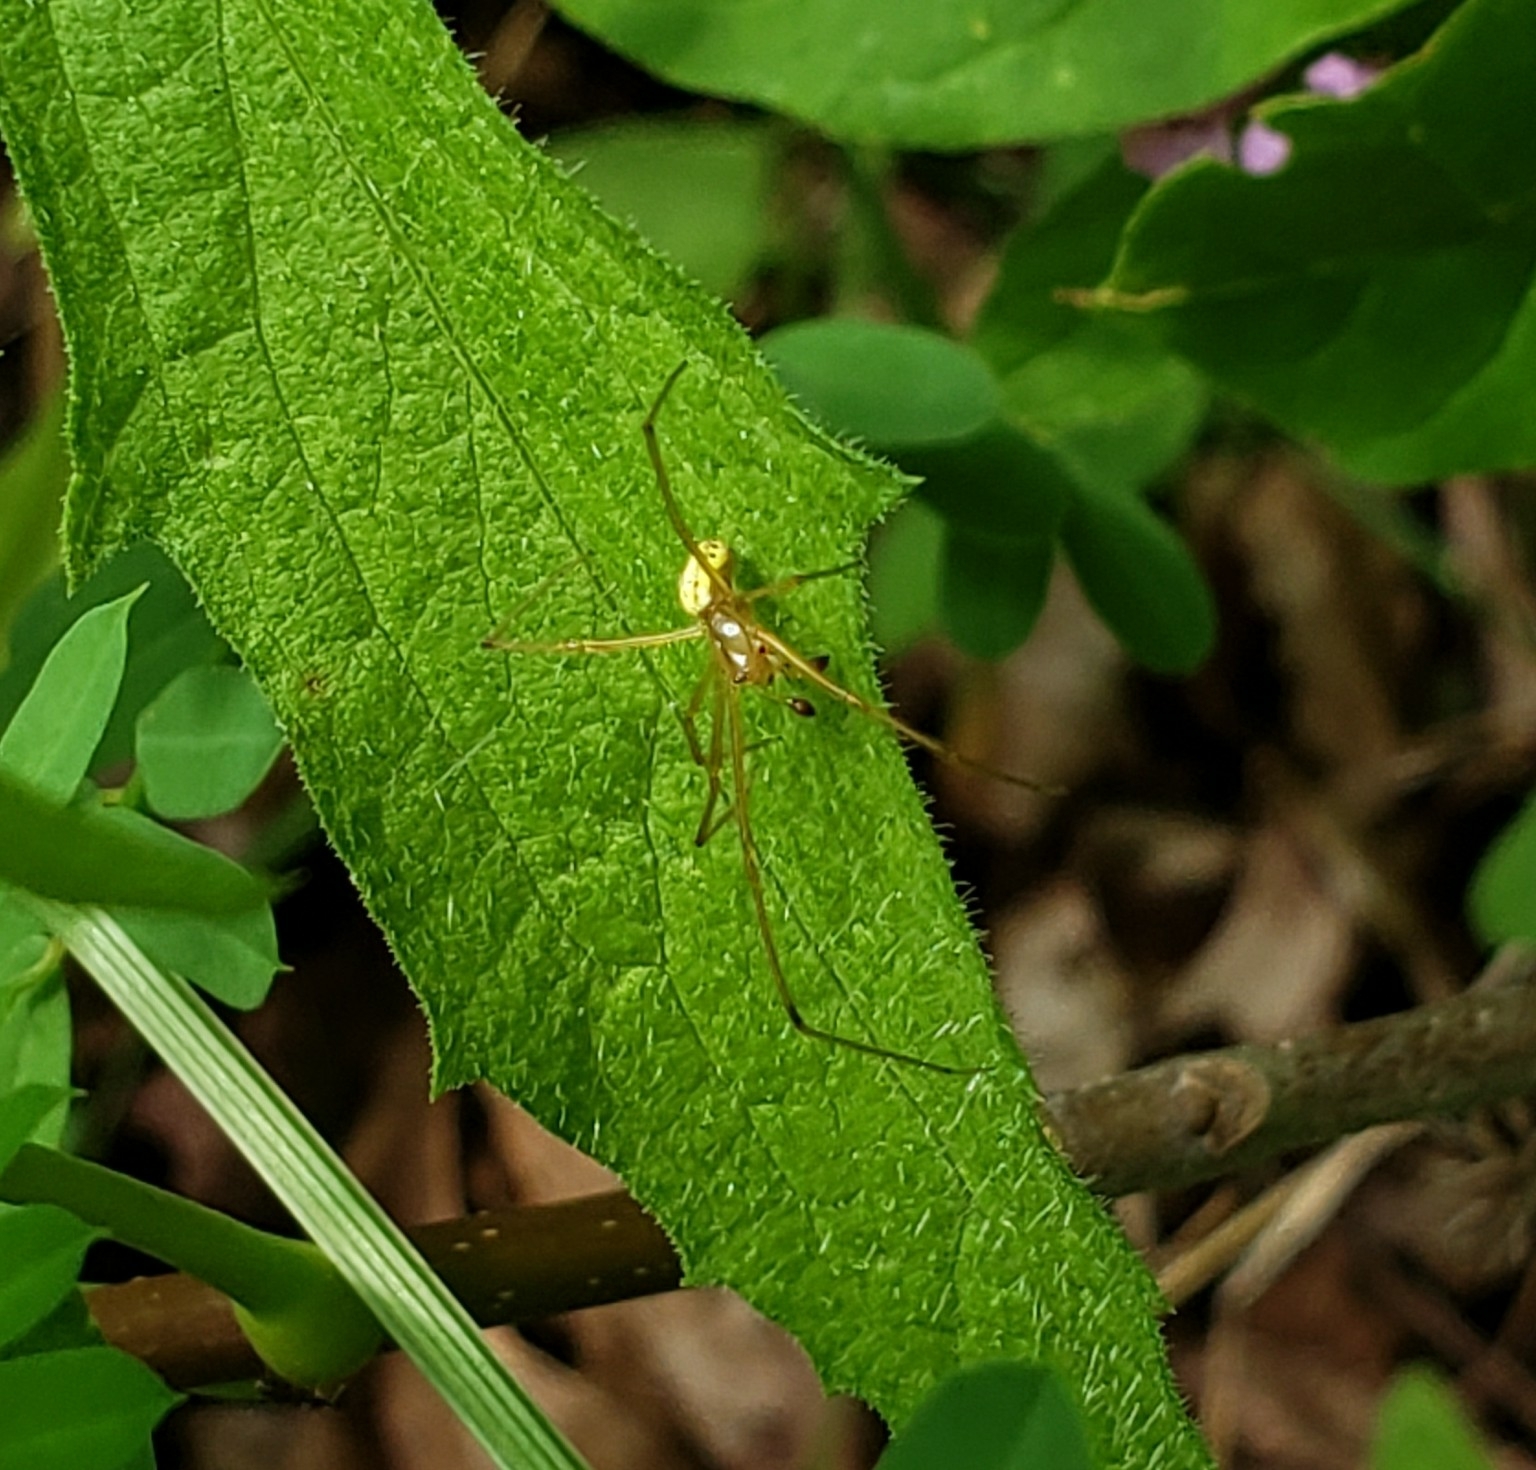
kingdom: Animalia
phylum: Arthropoda
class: Arachnida
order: Araneae
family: Theridiidae
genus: Enoplognatha
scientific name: Enoplognatha ovata
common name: Common candy-striped spider
